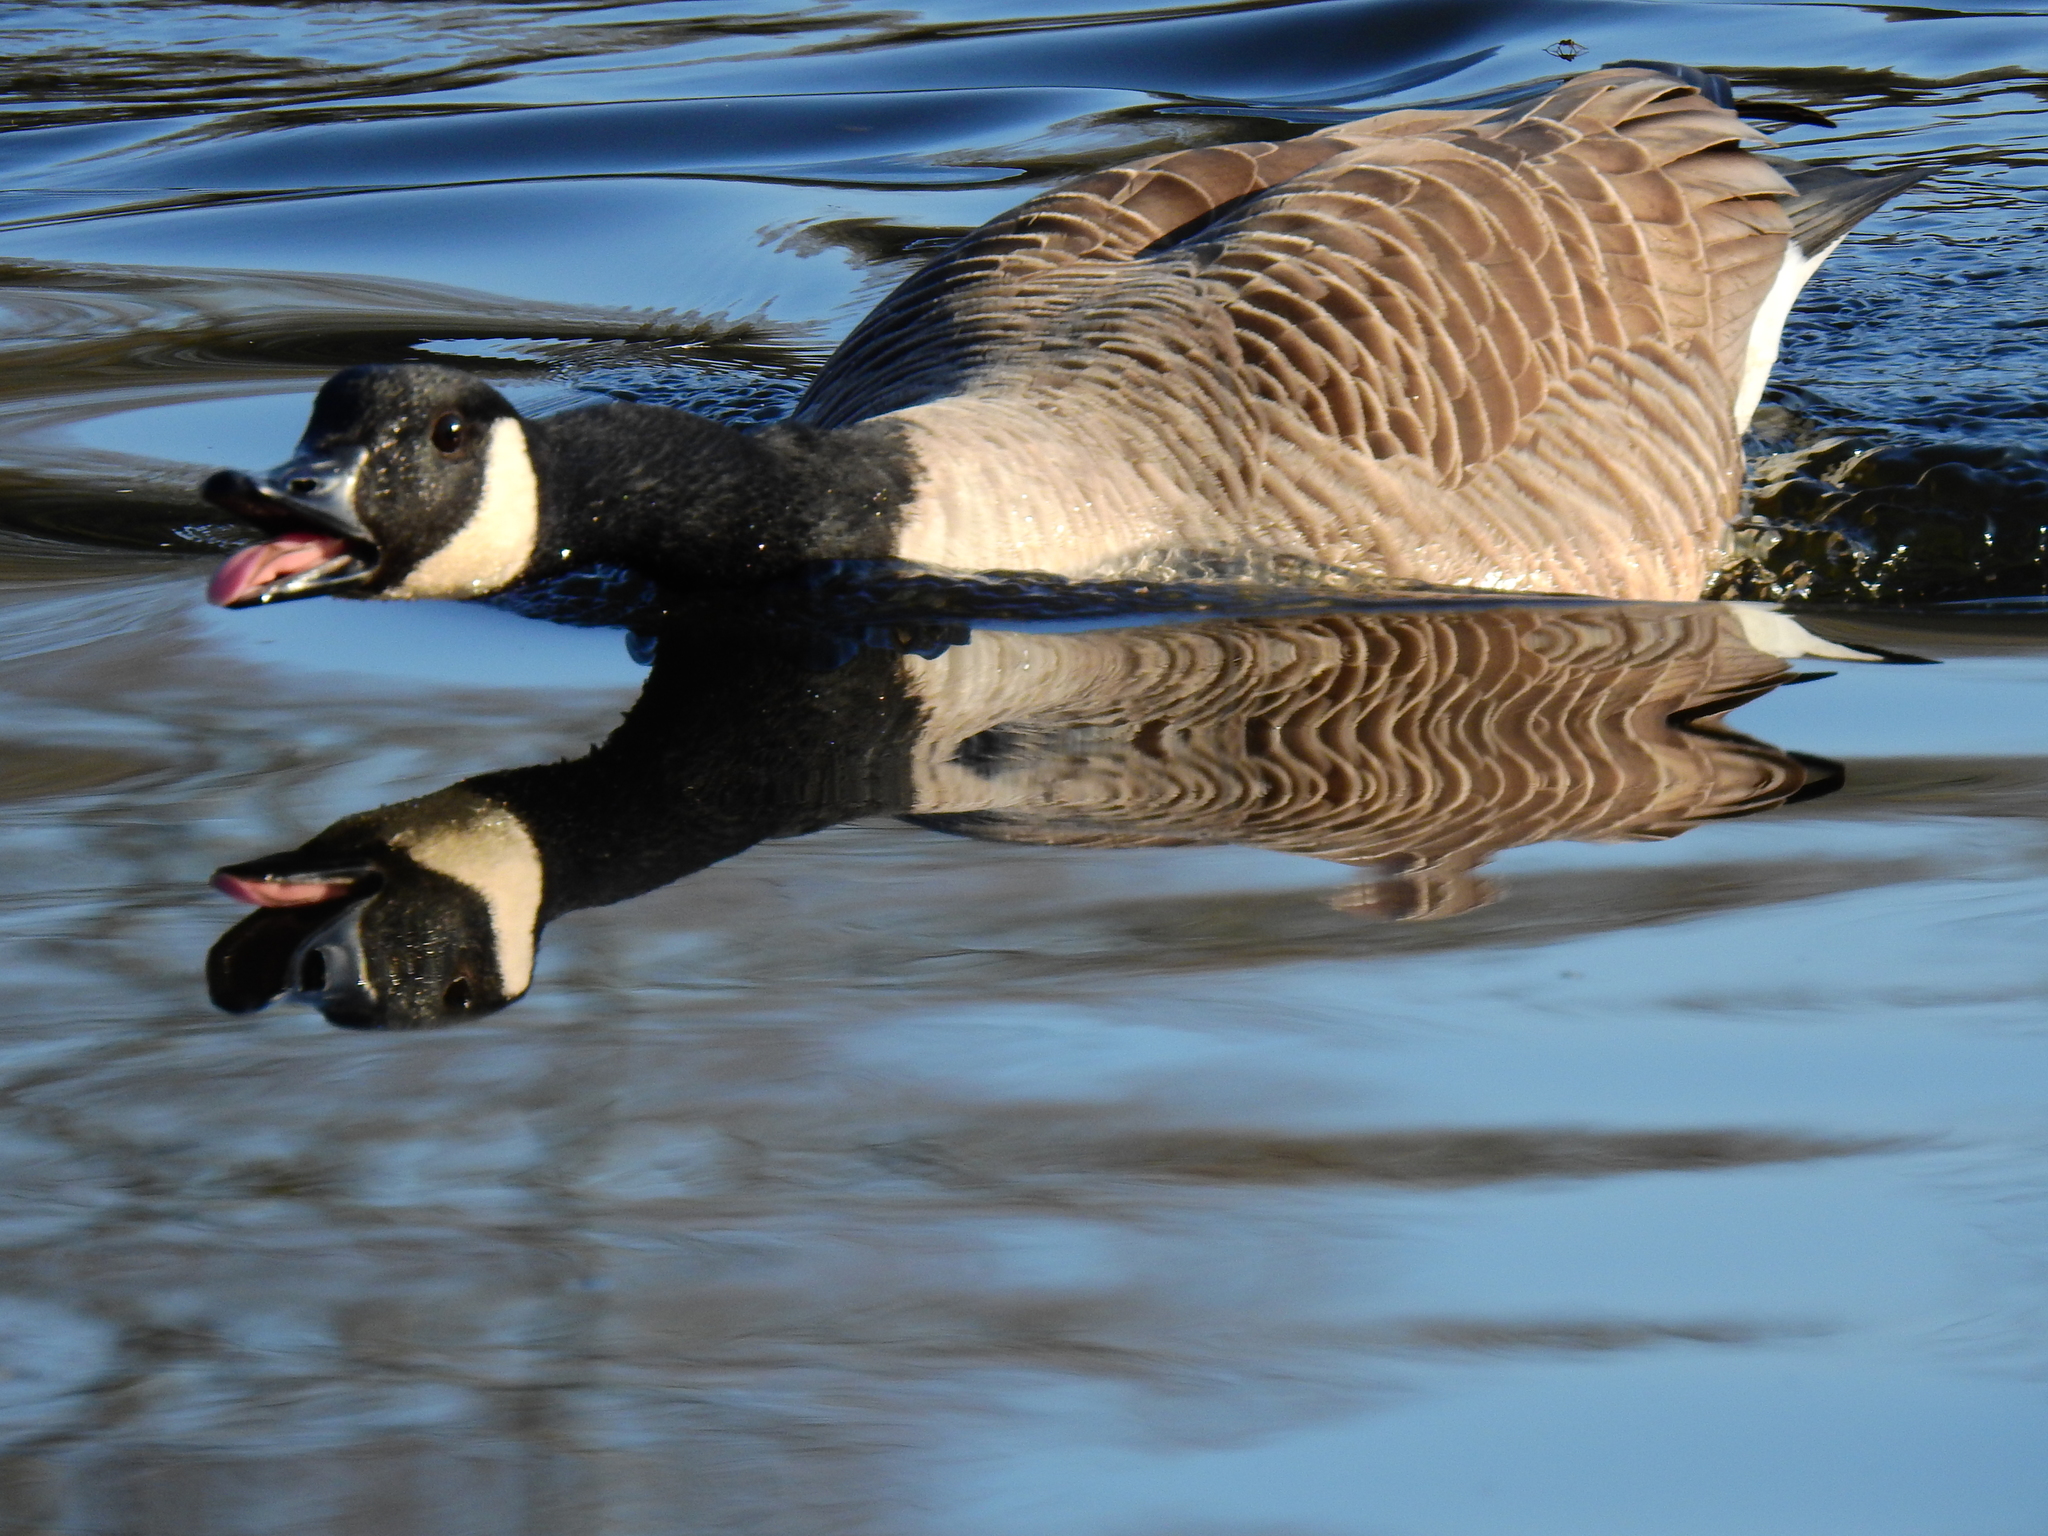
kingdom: Animalia
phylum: Chordata
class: Aves
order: Anseriformes
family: Anatidae
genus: Branta
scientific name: Branta canadensis
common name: Canada goose
